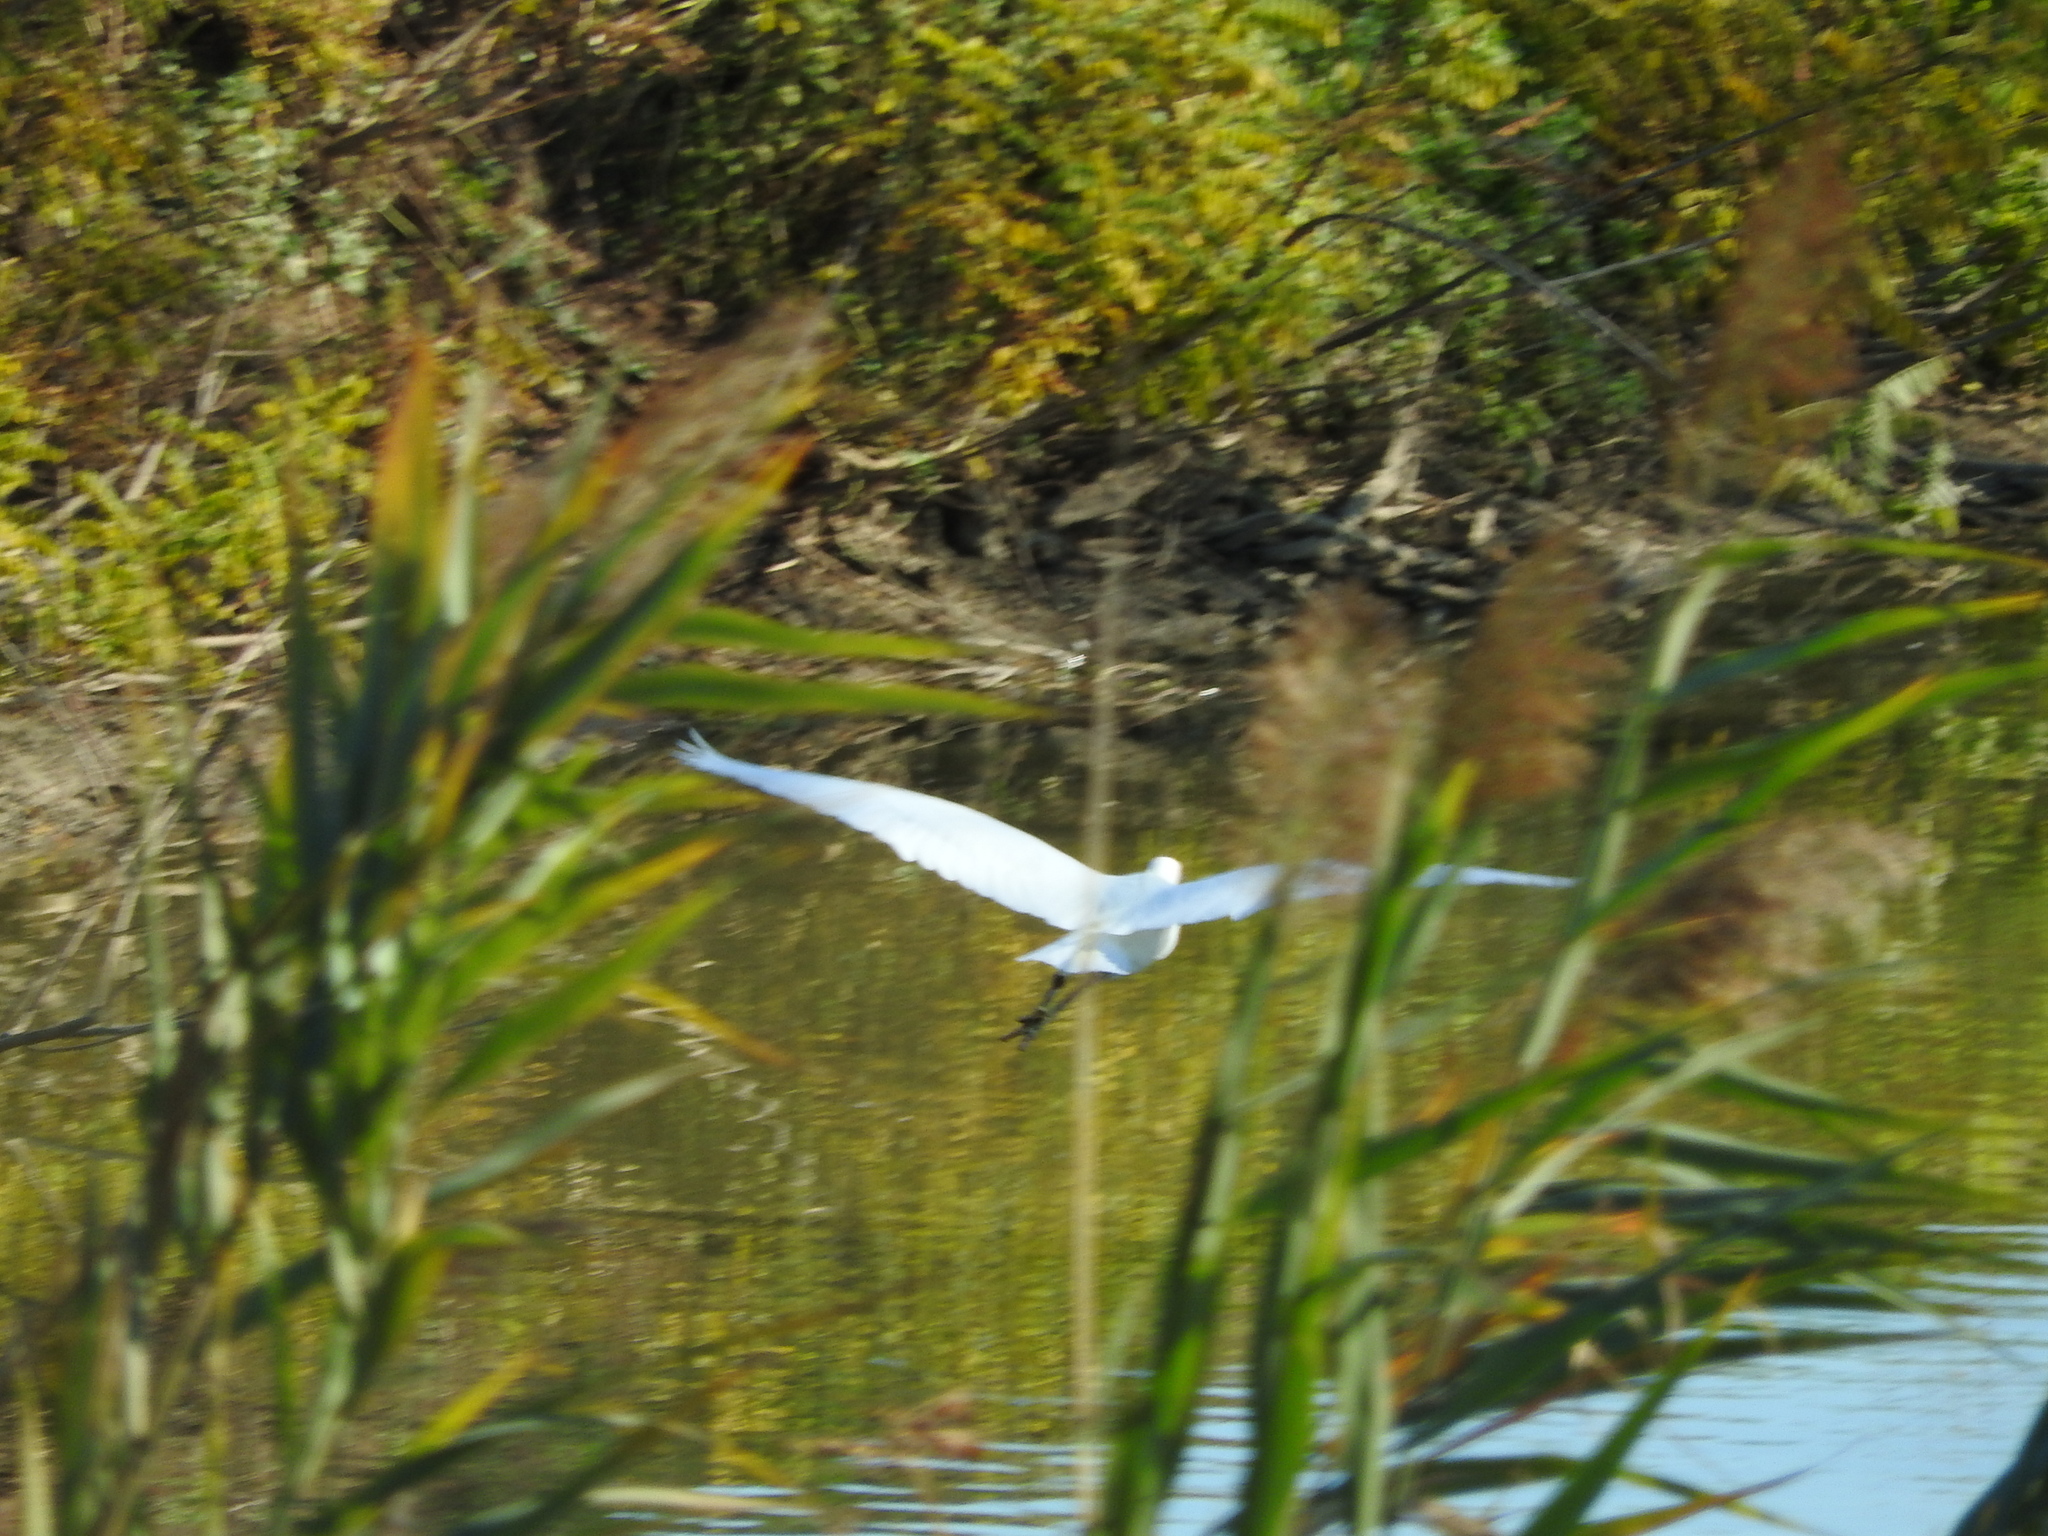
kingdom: Animalia
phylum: Chordata
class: Aves
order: Pelecaniformes
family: Ardeidae
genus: Egretta
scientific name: Egretta garzetta
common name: Little egret
